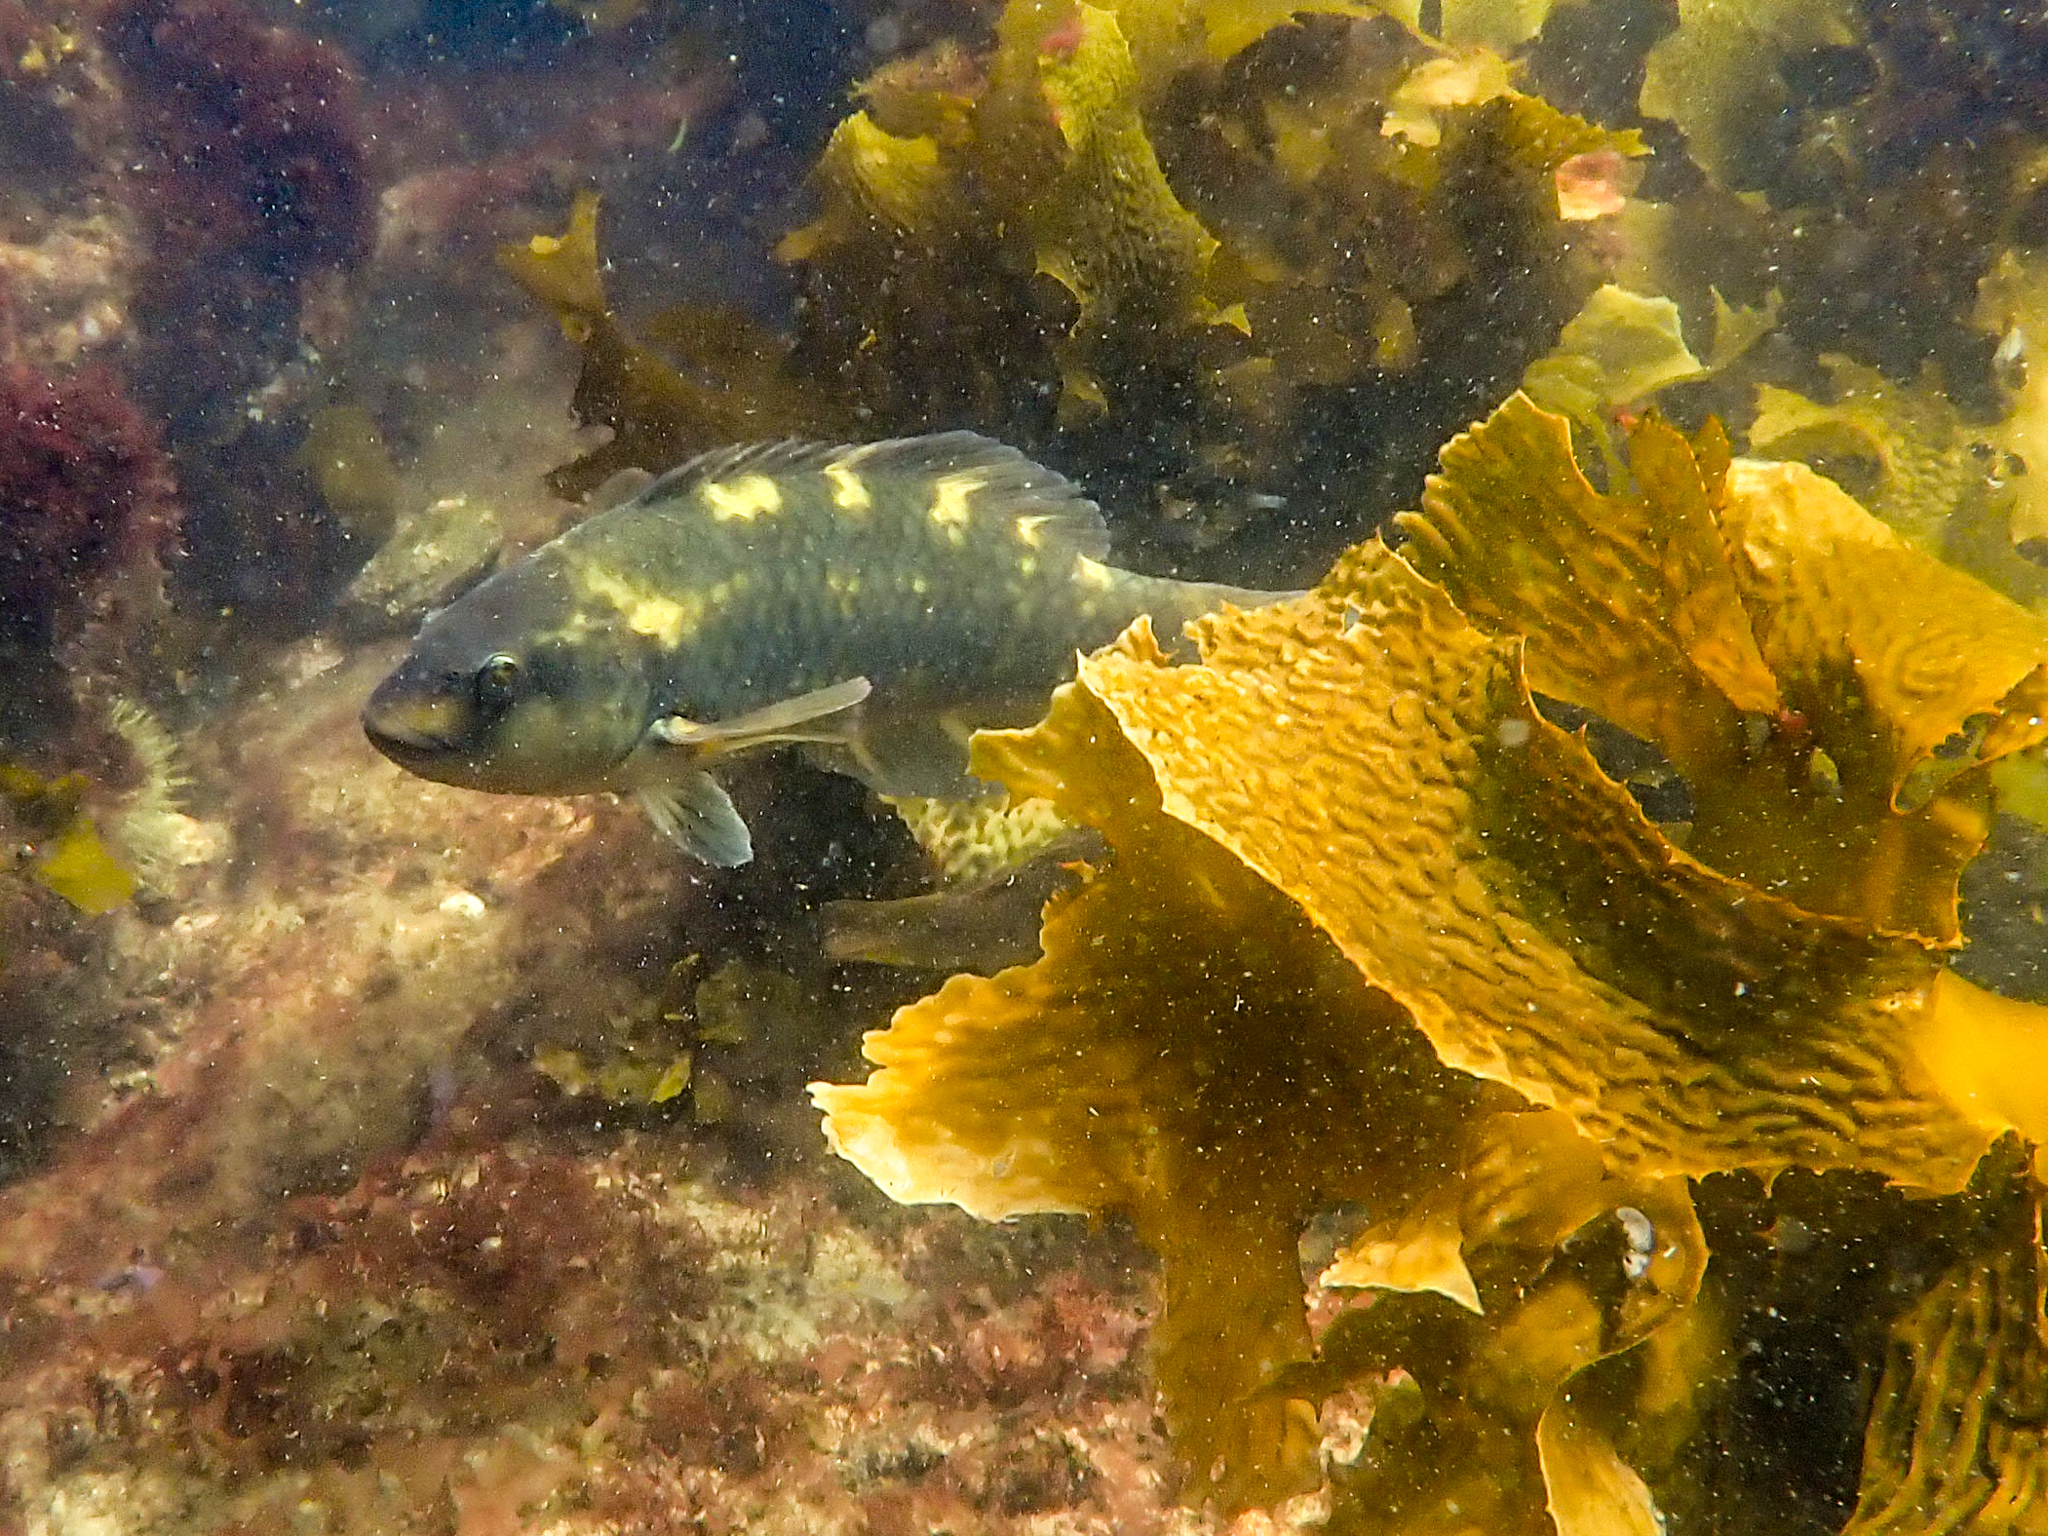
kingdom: Animalia
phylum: Chordata
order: Perciformes
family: Labridae
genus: Notolabrus
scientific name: Notolabrus fucicola
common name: Banded parrotfish
